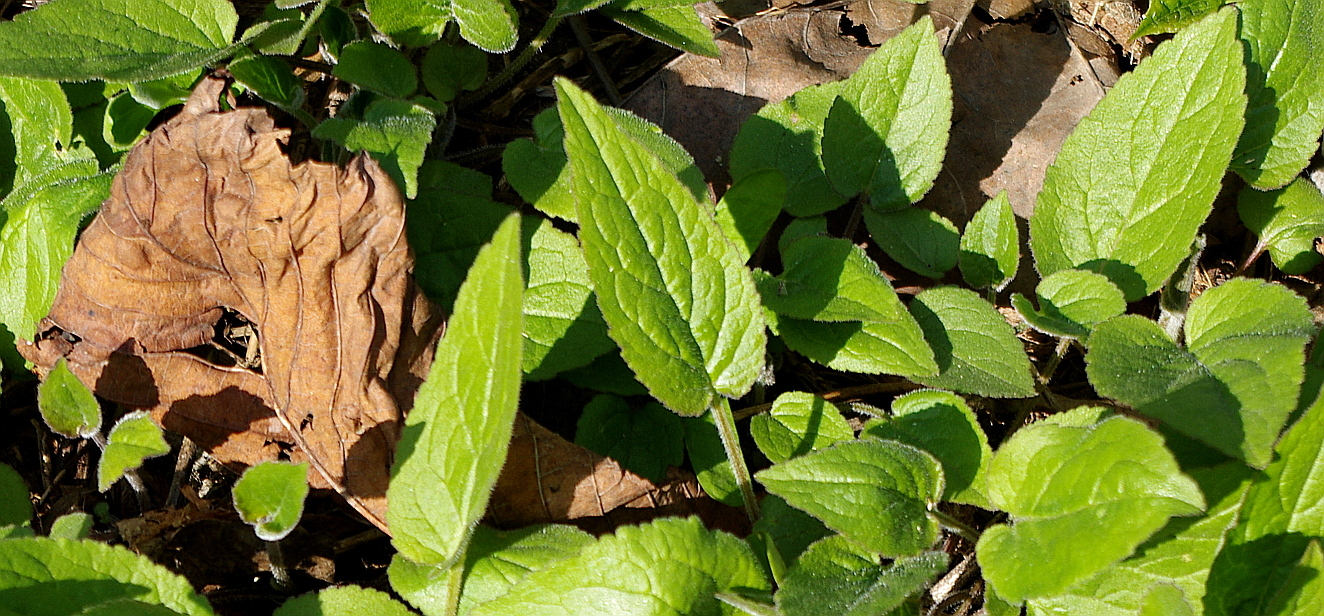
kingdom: Plantae
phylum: Tracheophyta
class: Magnoliopsida
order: Asterales
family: Campanulaceae
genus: Campanula
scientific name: Campanula rapunculoides
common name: Creeping bellflower
